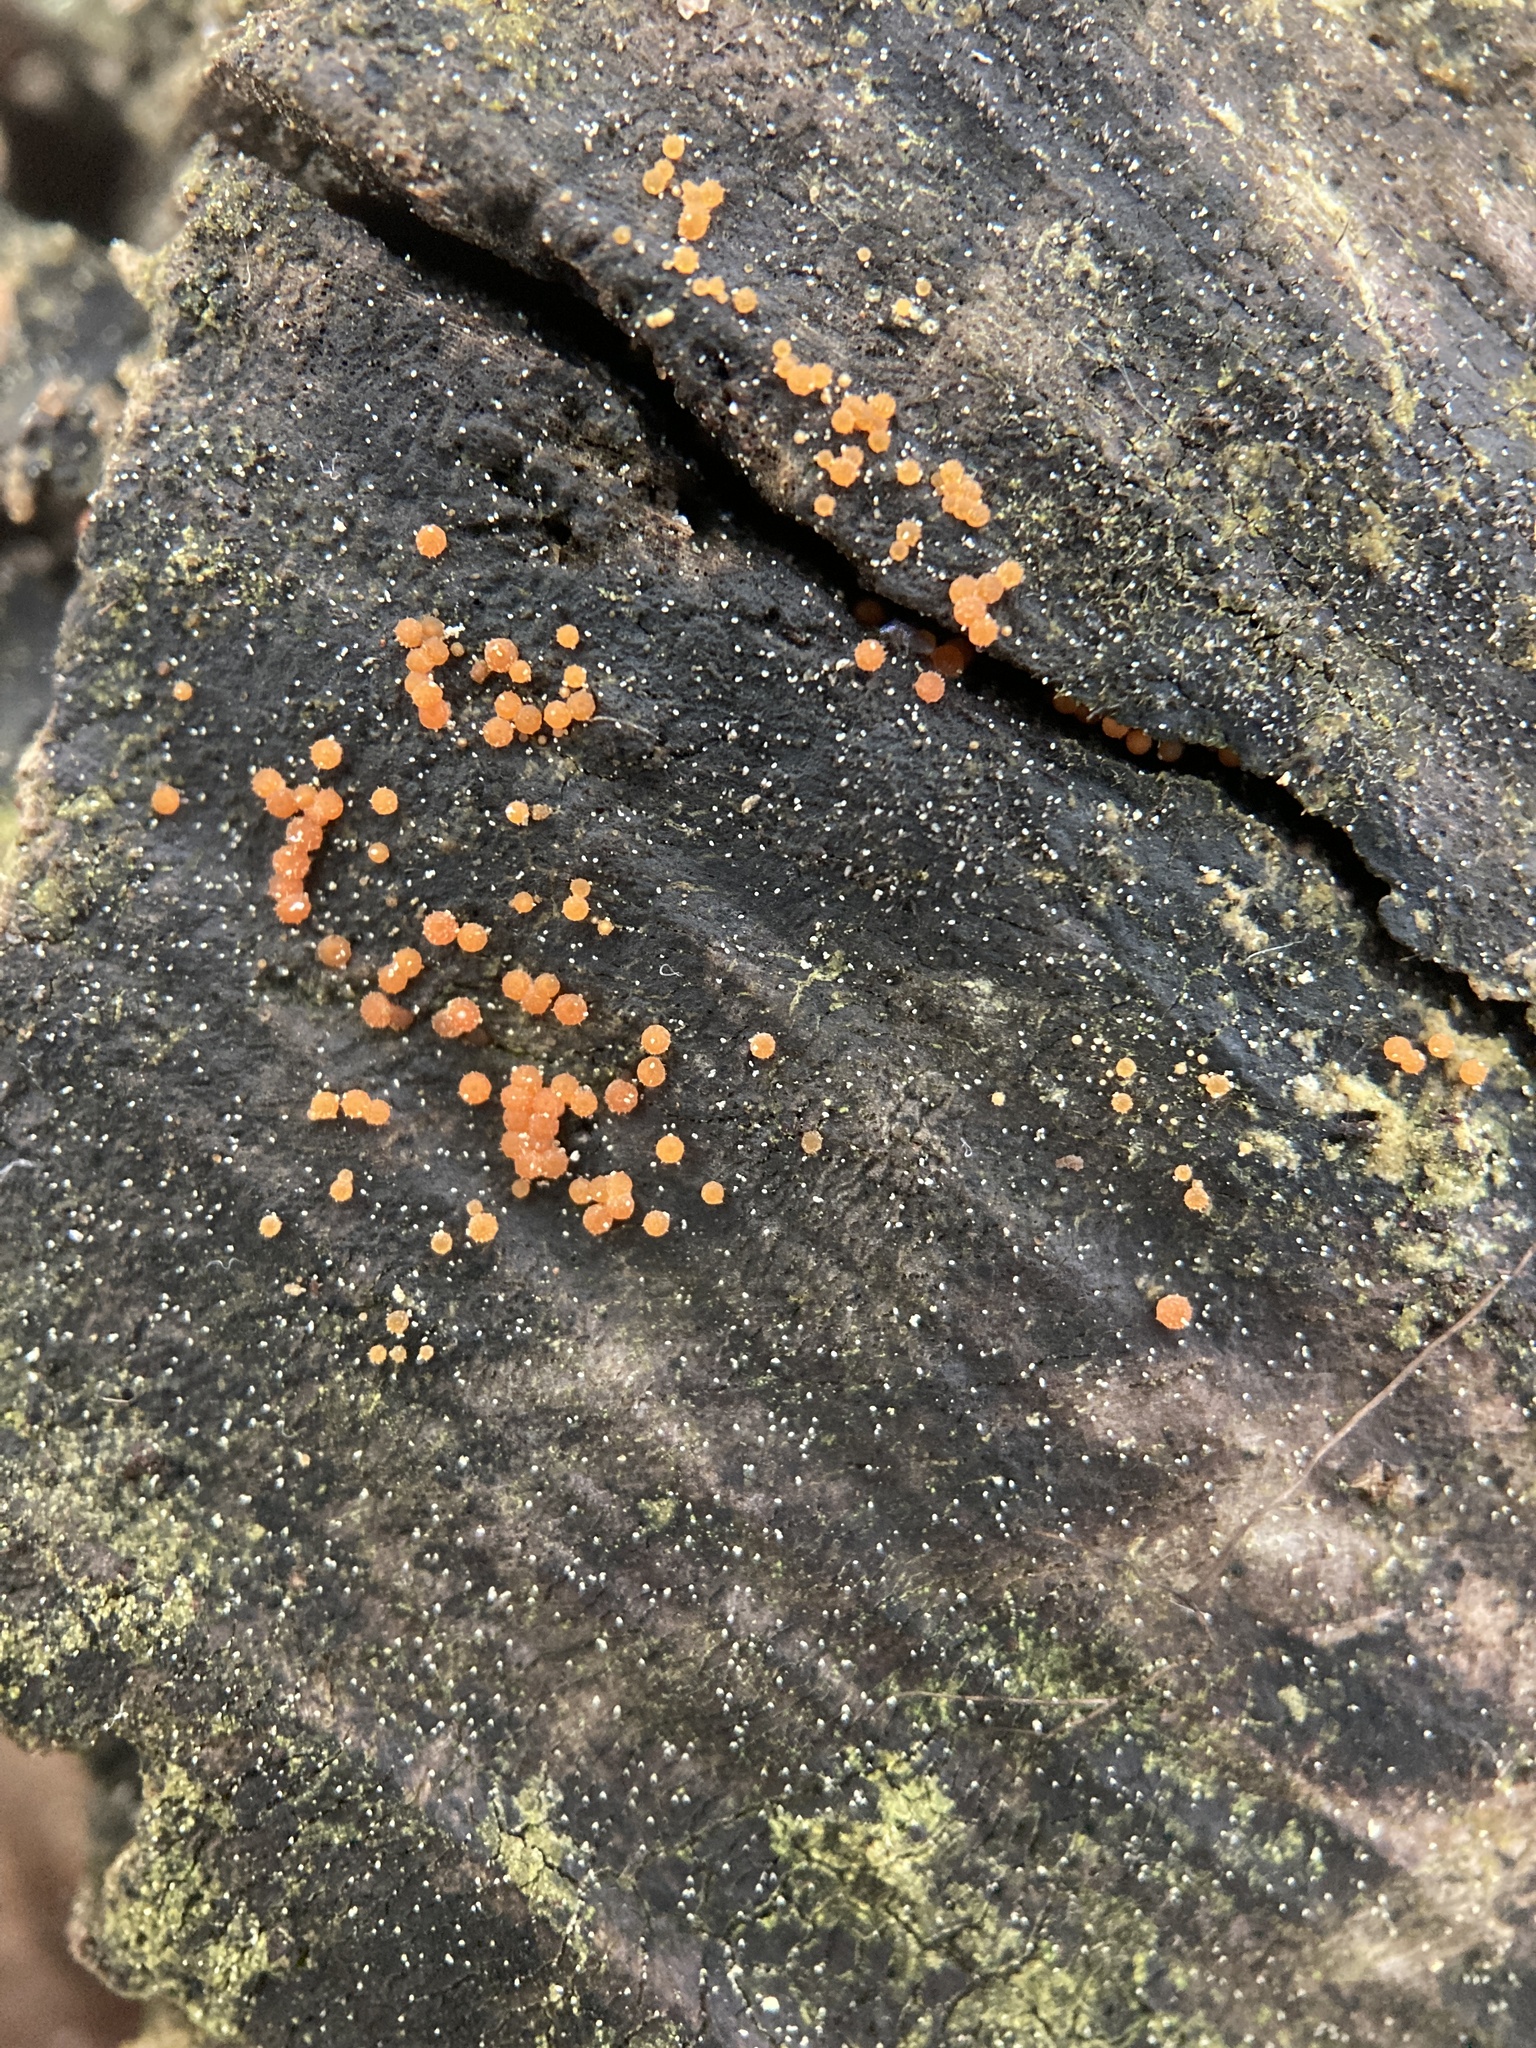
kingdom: Fungi
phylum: Ascomycota
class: Sordariomycetes
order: Hypocreales
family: Nectriaceae
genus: Hydropisphaera
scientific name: Hydropisphaera peziza
